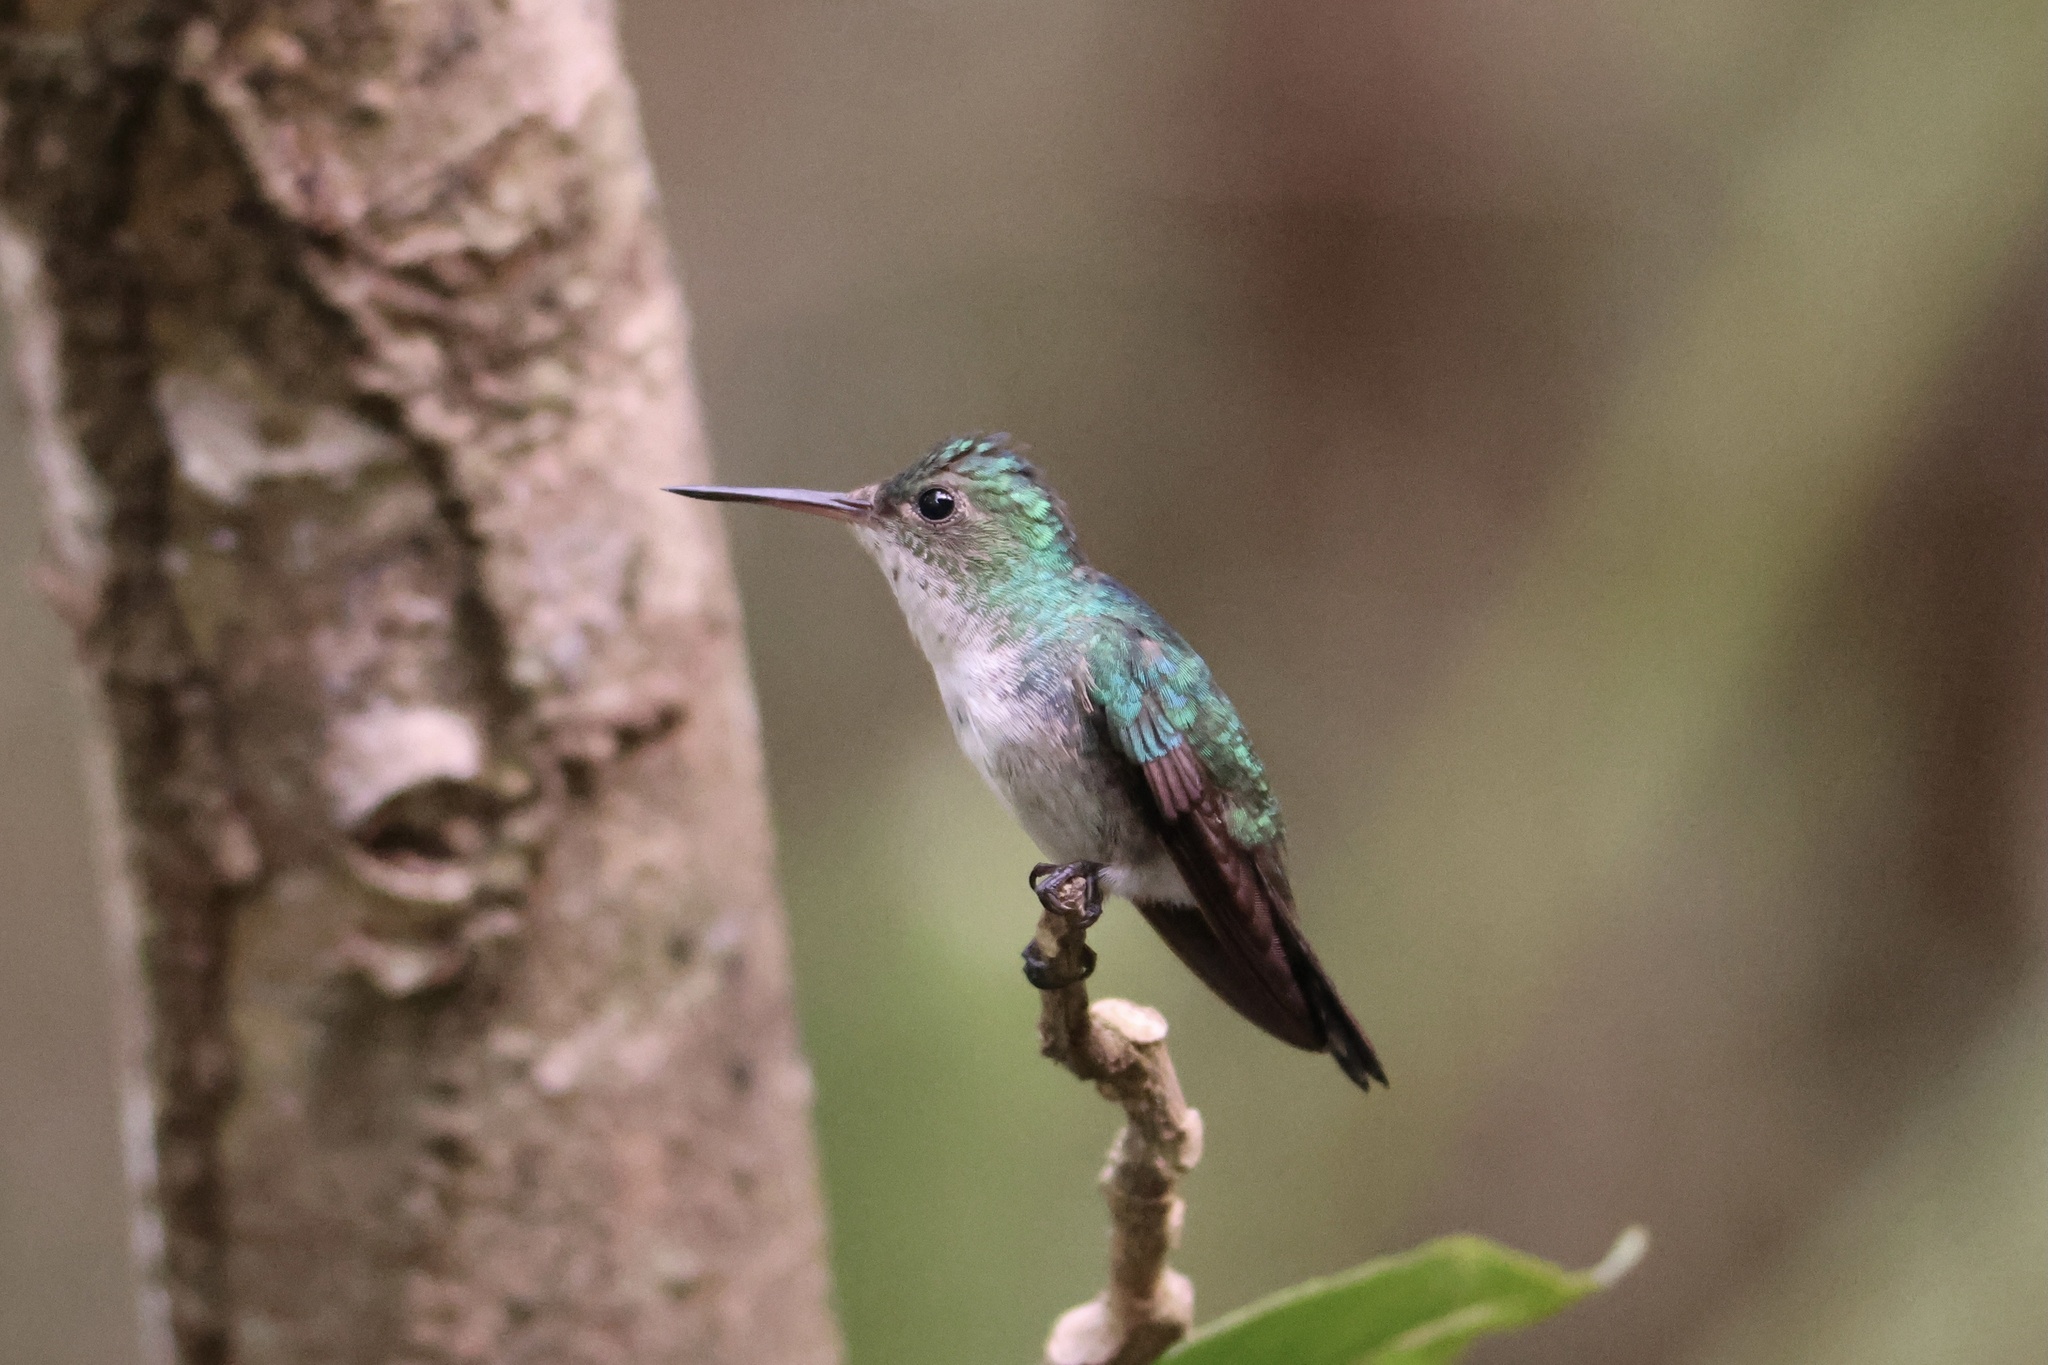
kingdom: Animalia
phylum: Chordata
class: Aves
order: Apodiformes
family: Trochilidae
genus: Chlorestes
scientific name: Chlorestes julie
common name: Violet-bellied hummingbird
